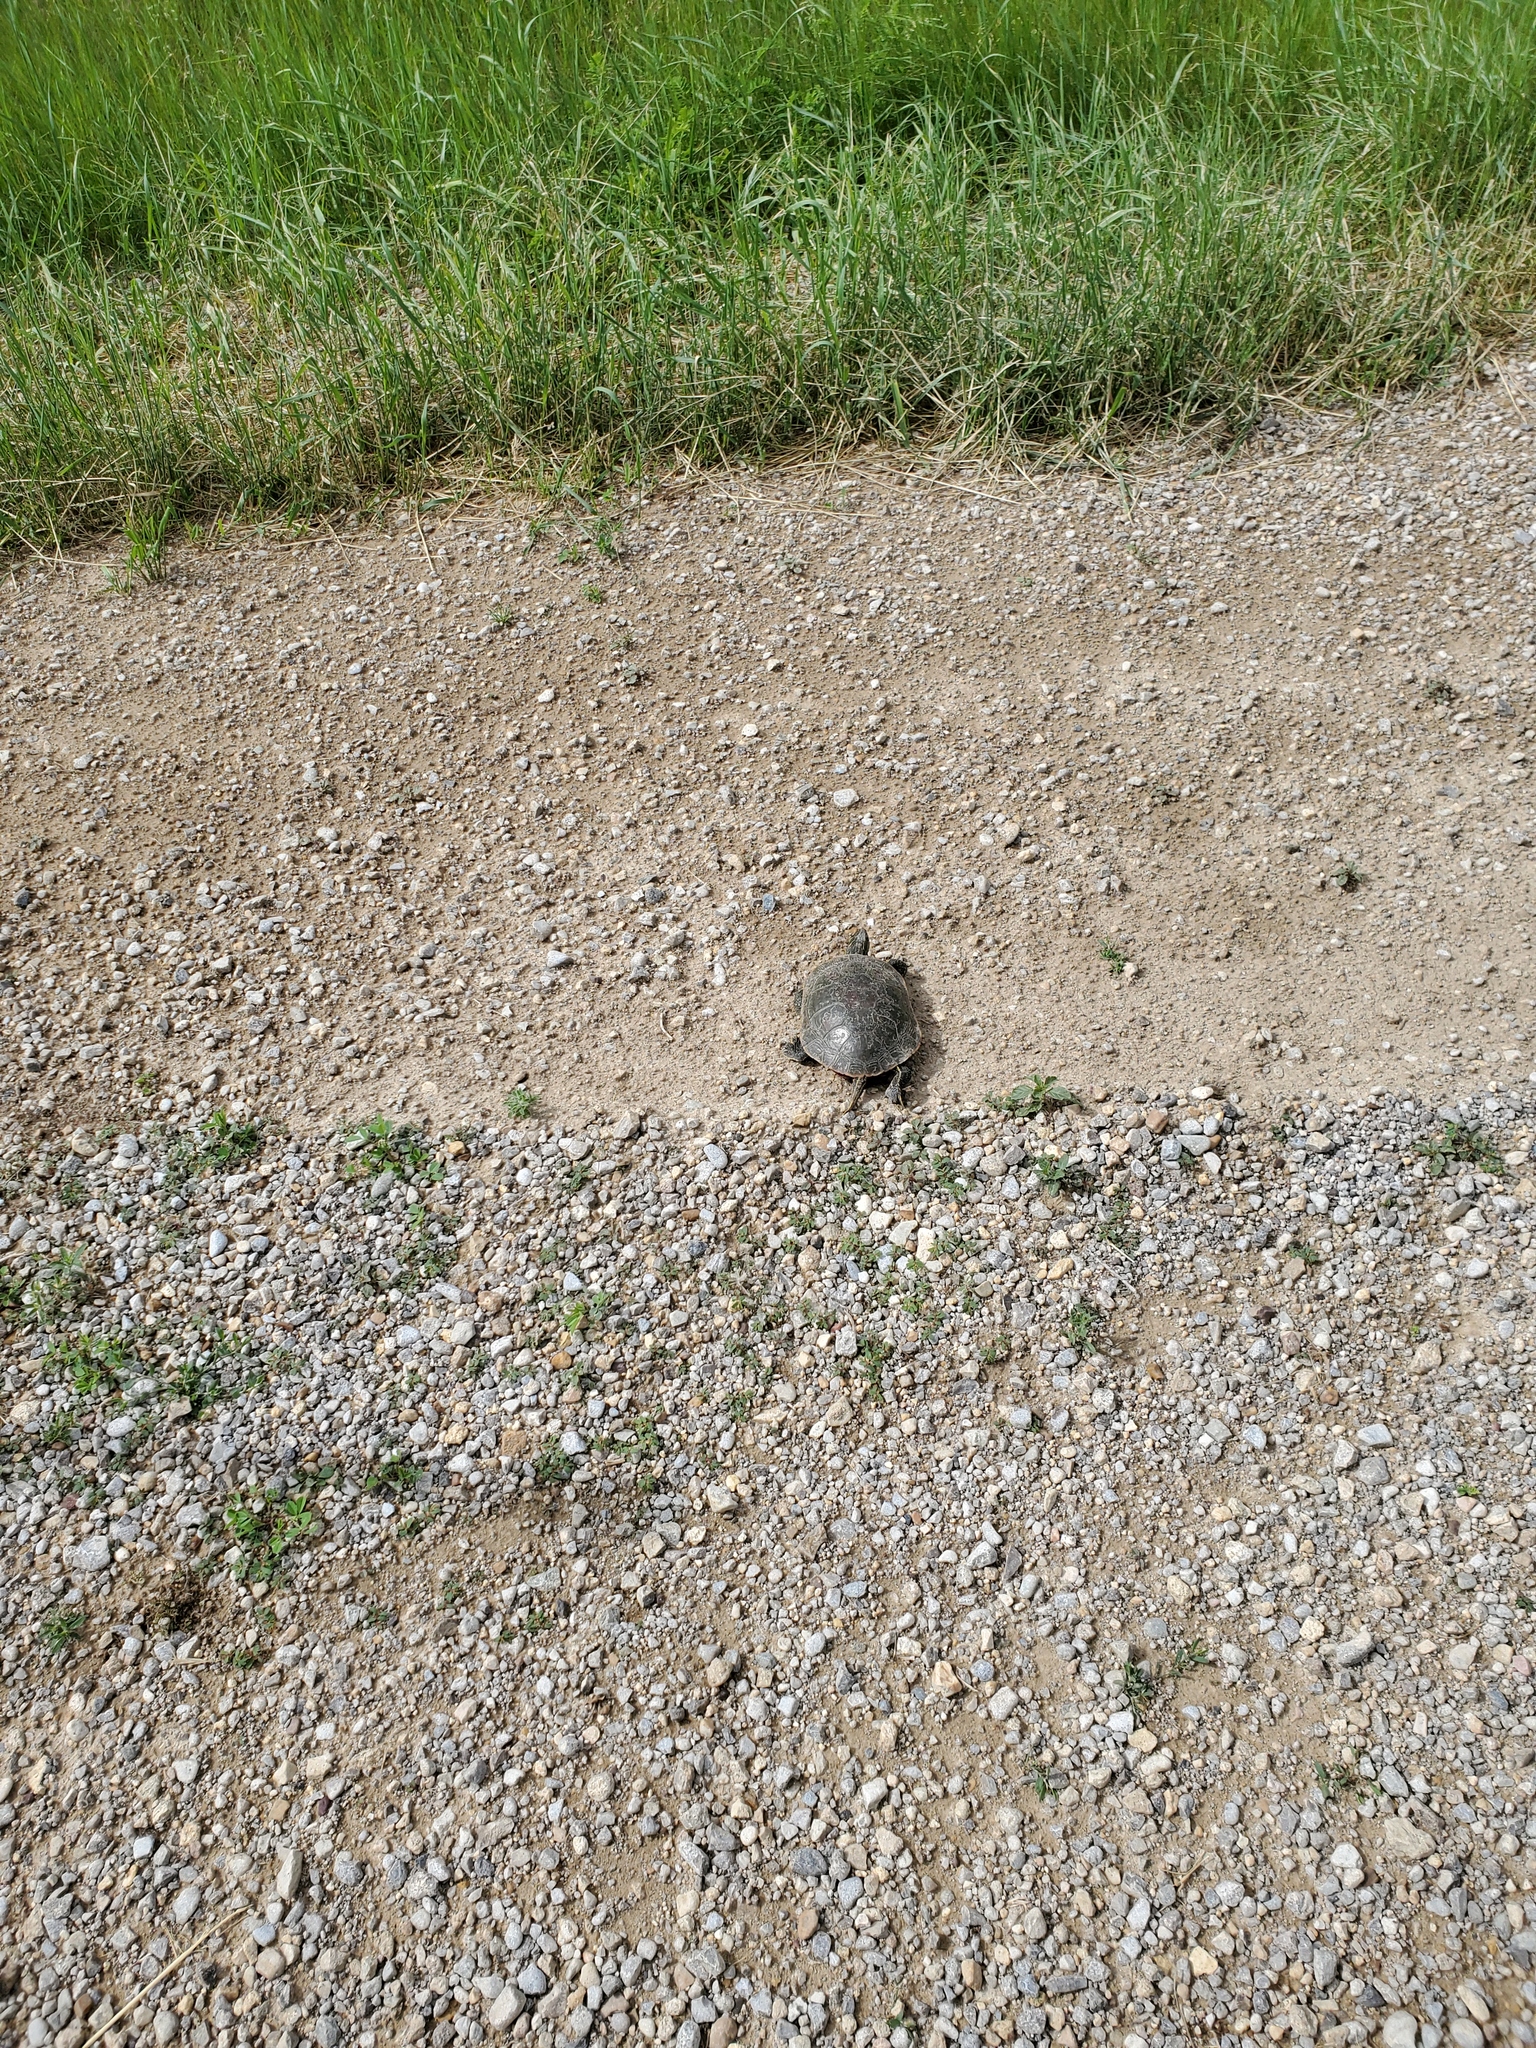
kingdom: Animalia
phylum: Chordata
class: Testudines
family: Emydidae
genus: Chrysemys
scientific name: Chrysemys picta
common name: Painted turtle
